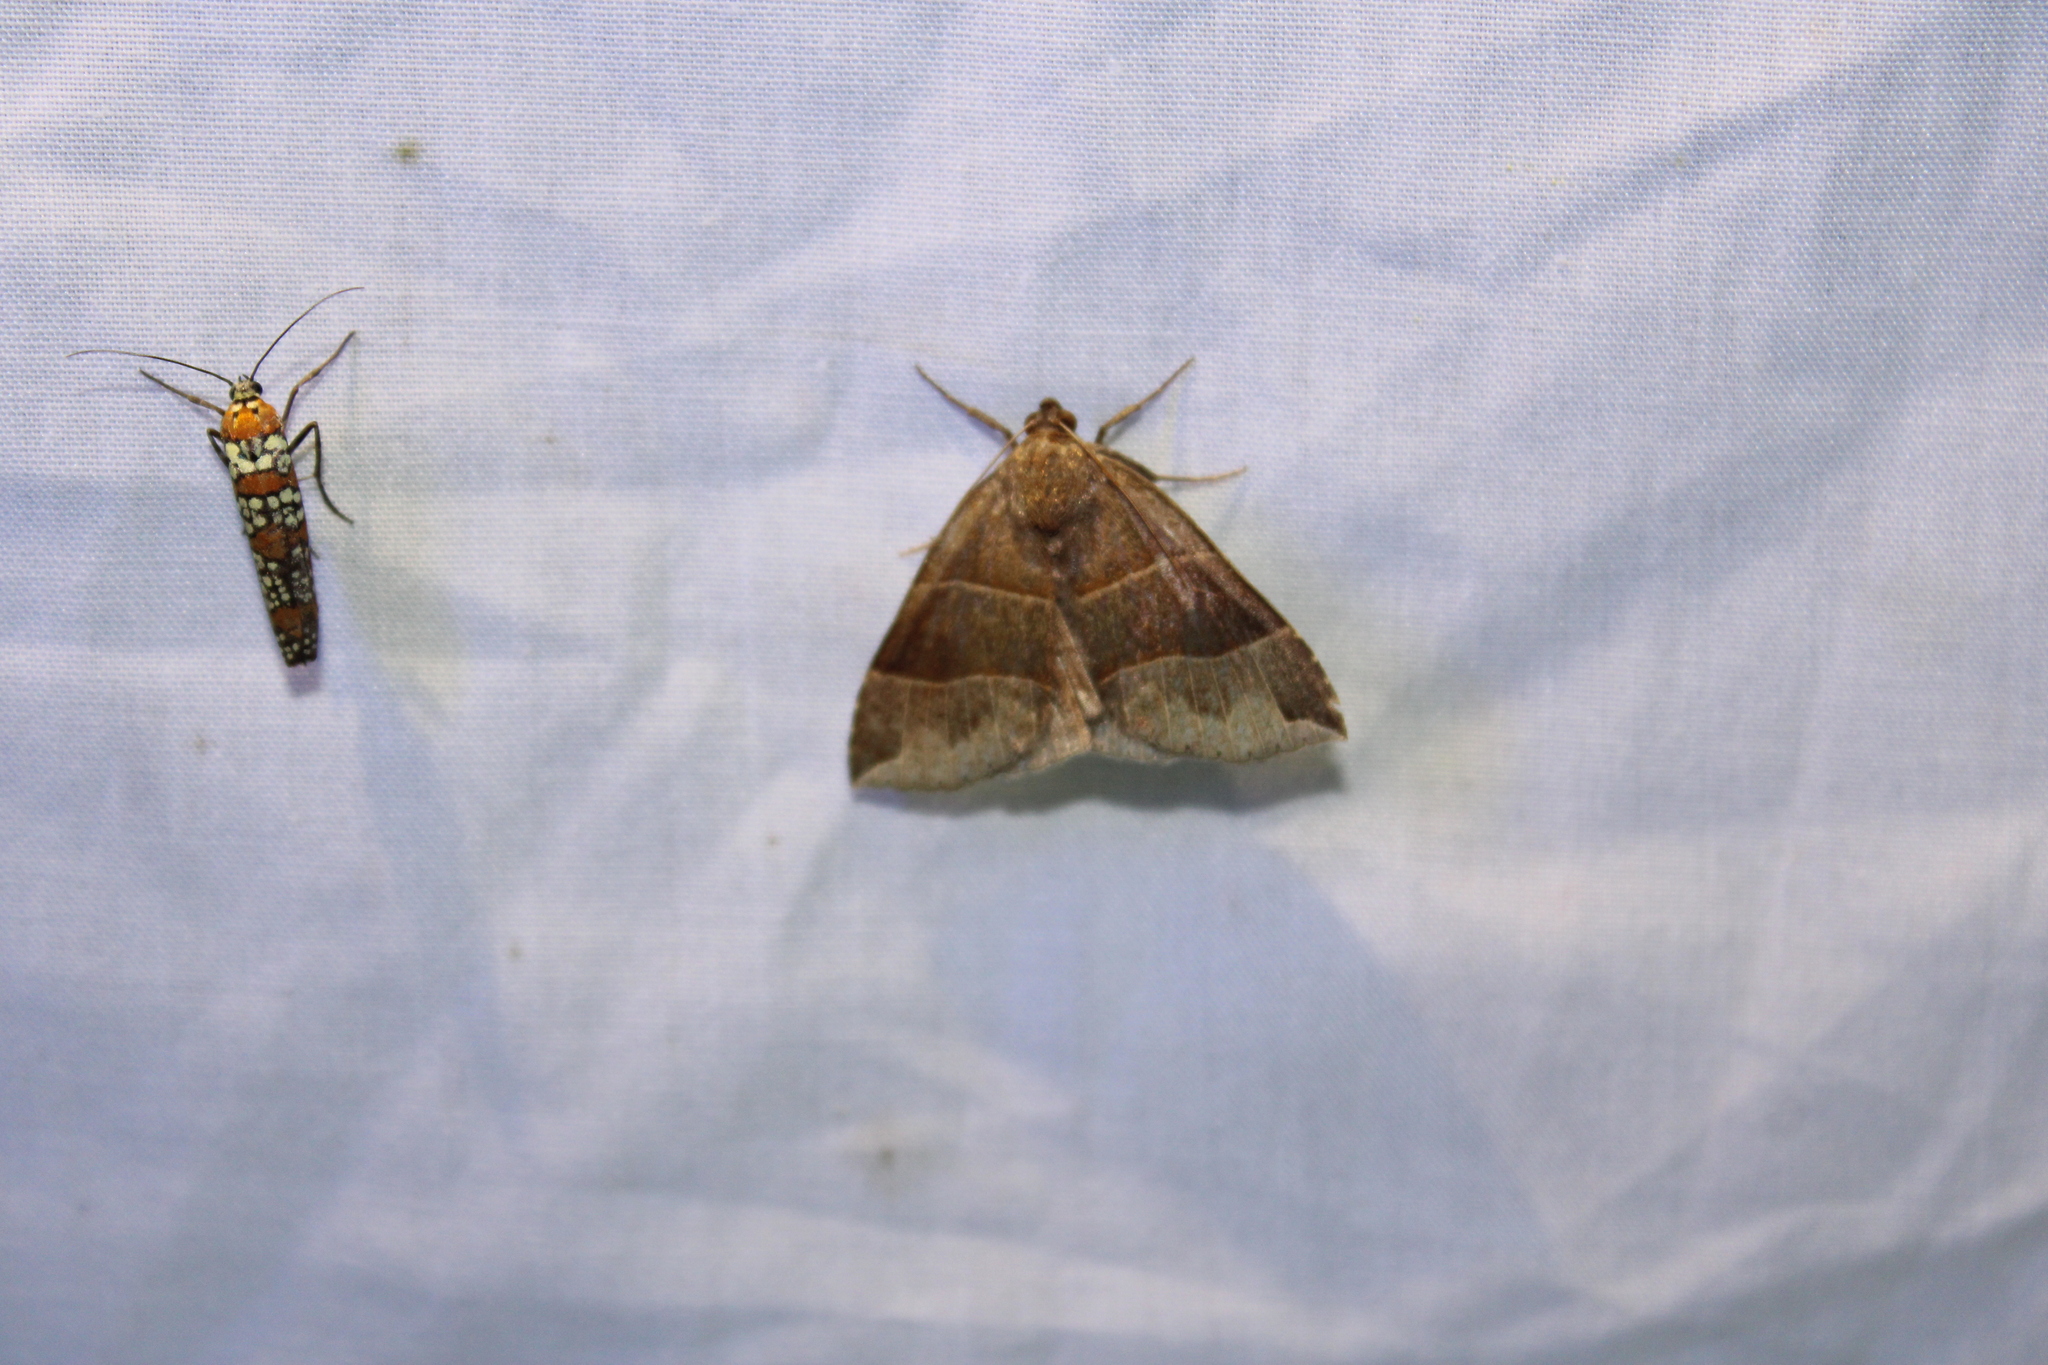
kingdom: Animalia
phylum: Arthropoda
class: Insecta
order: Lepidoptera
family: Erebidae
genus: Parallelia
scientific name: Parallelia bistriaris
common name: Maple looper moth
